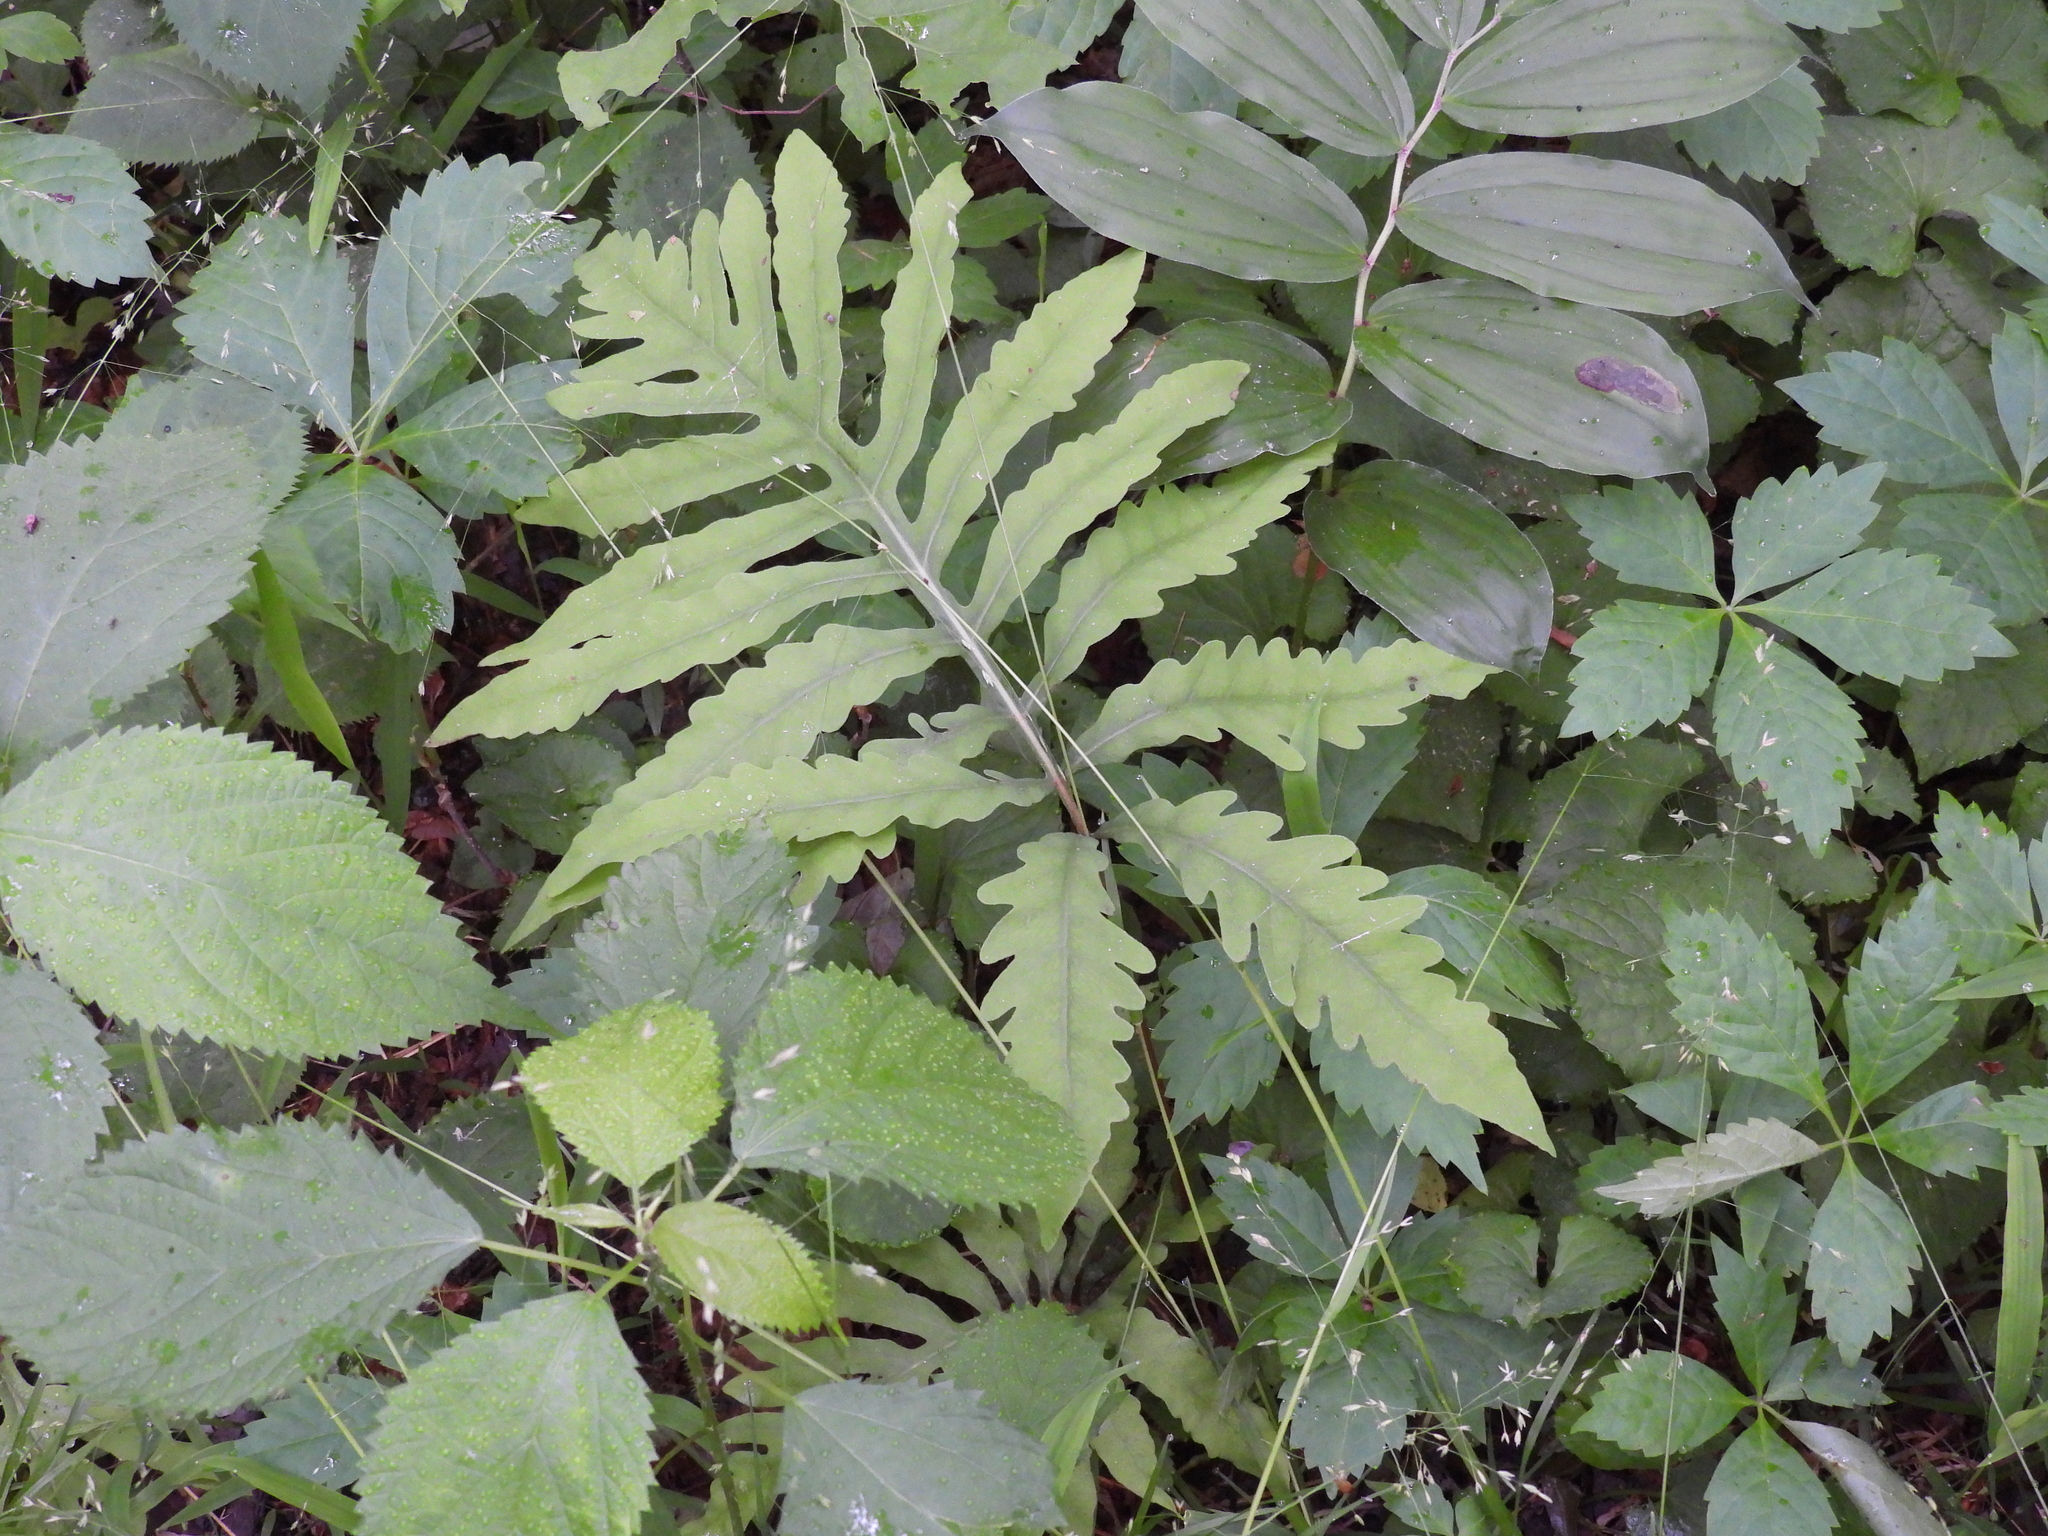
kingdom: Plantae
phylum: Tracheophyta
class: Polypodiopsida
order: Polypodiales
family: Onocleaceae
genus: Onoclea
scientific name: Onoclea sensibilis
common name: Sensitive fern
